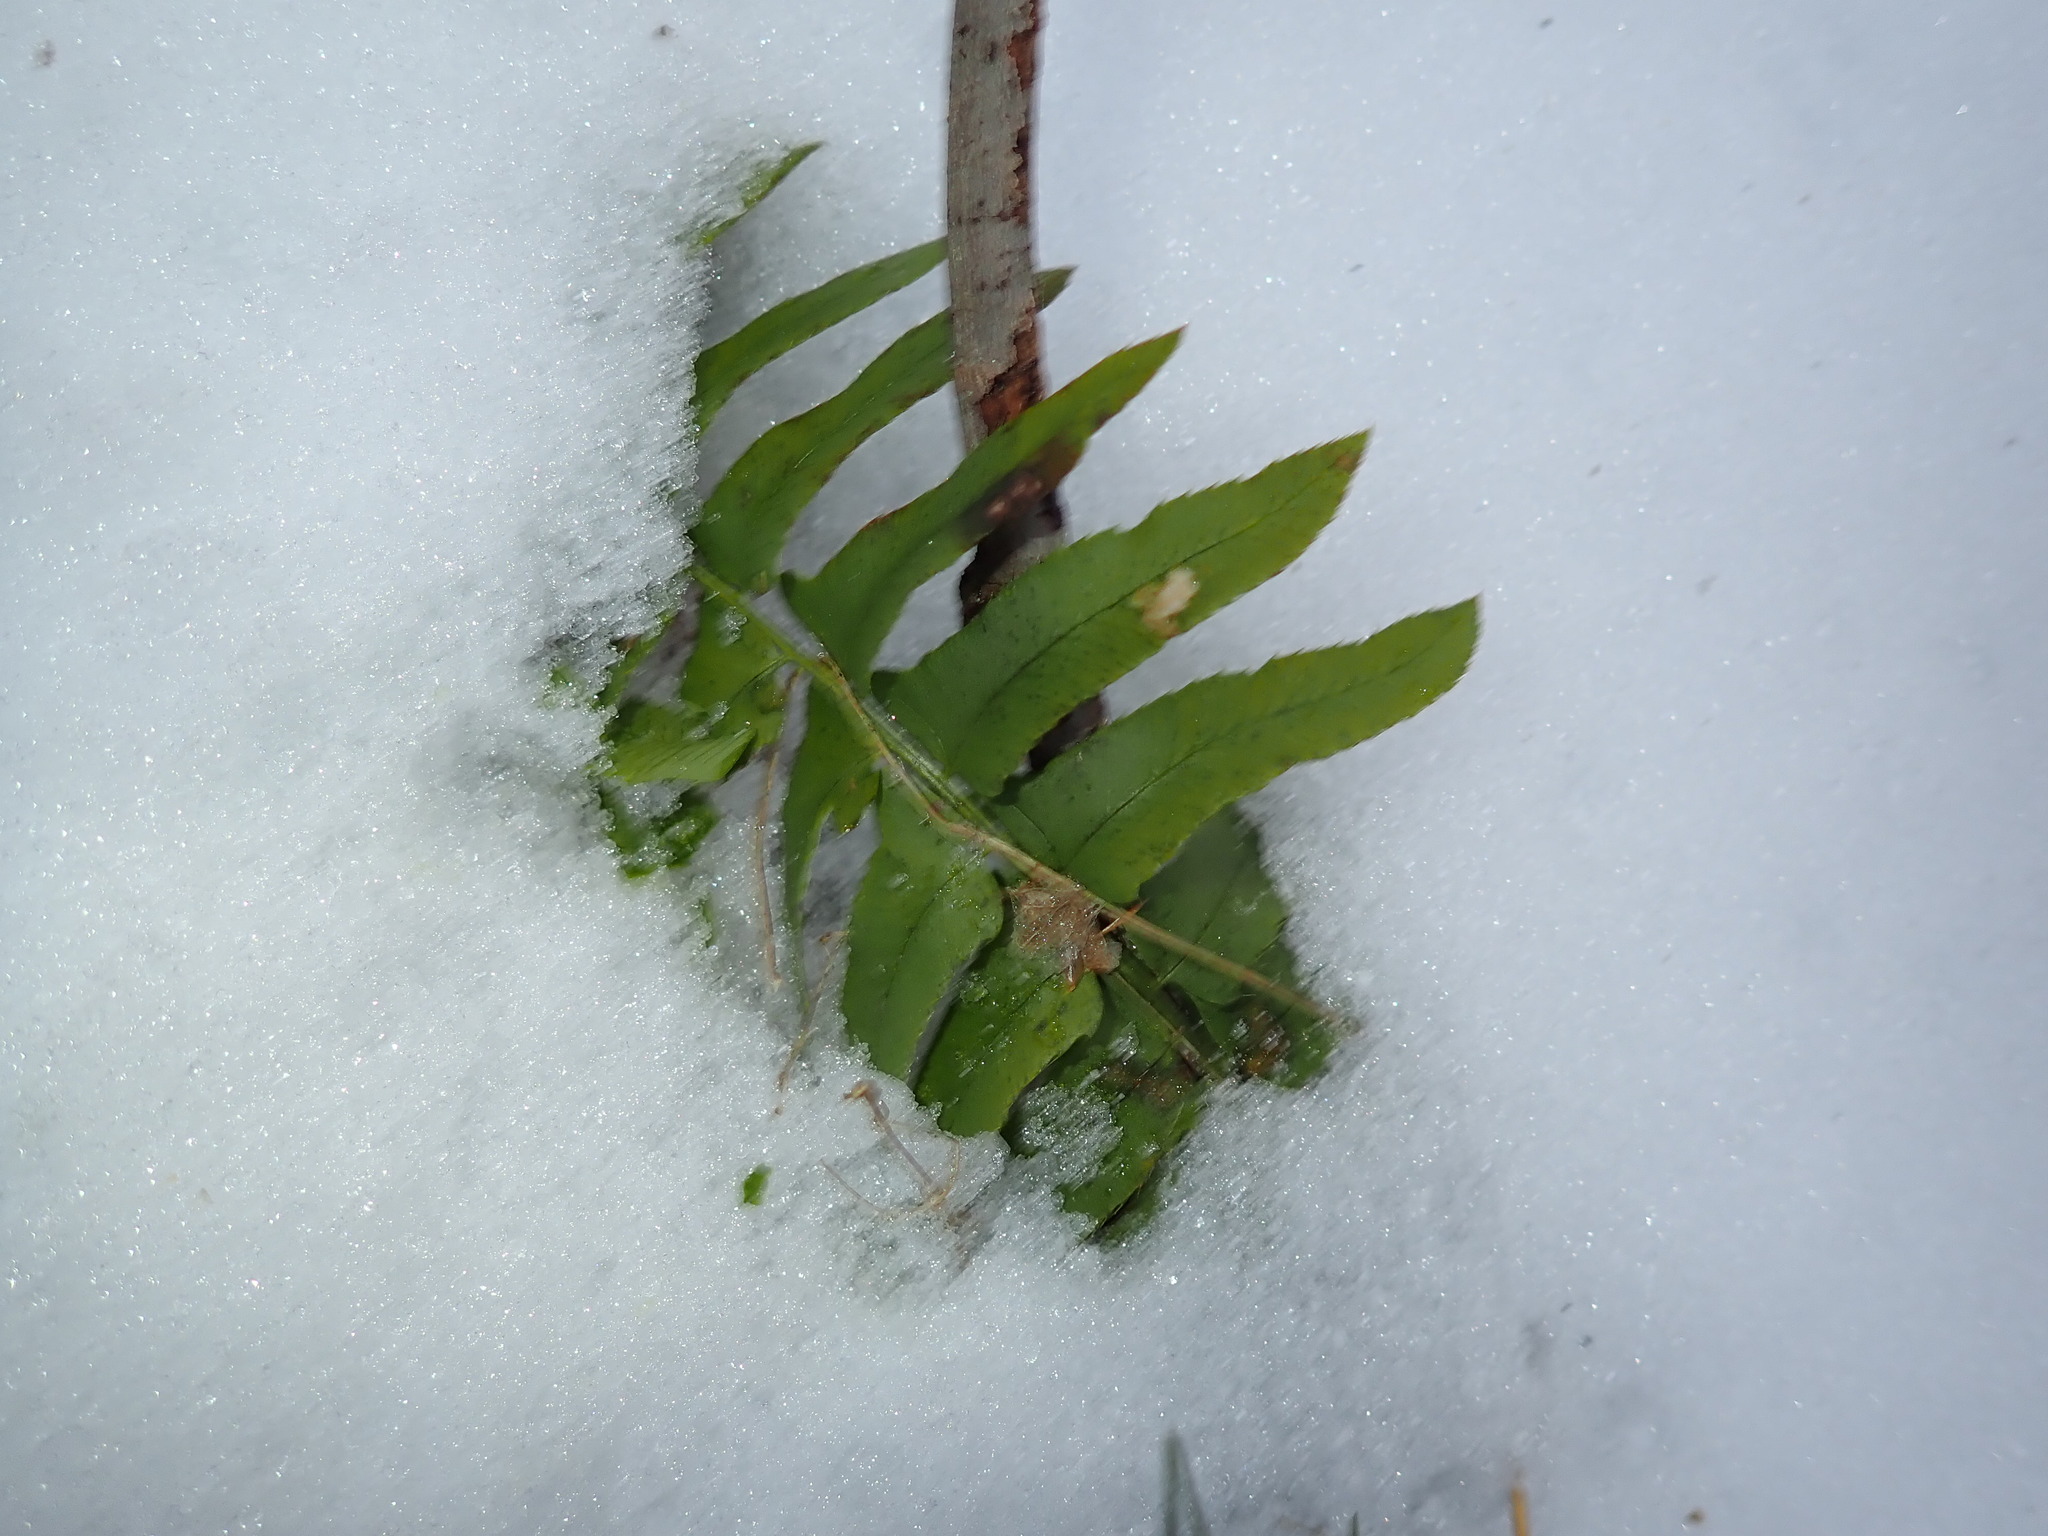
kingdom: Plantae
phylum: Tracheophyta
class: Polypodiopsida
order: Polypodiales
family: Dryopteridaceae
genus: Polystichum
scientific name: Polystichum acrostichoides
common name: Christmas fern
